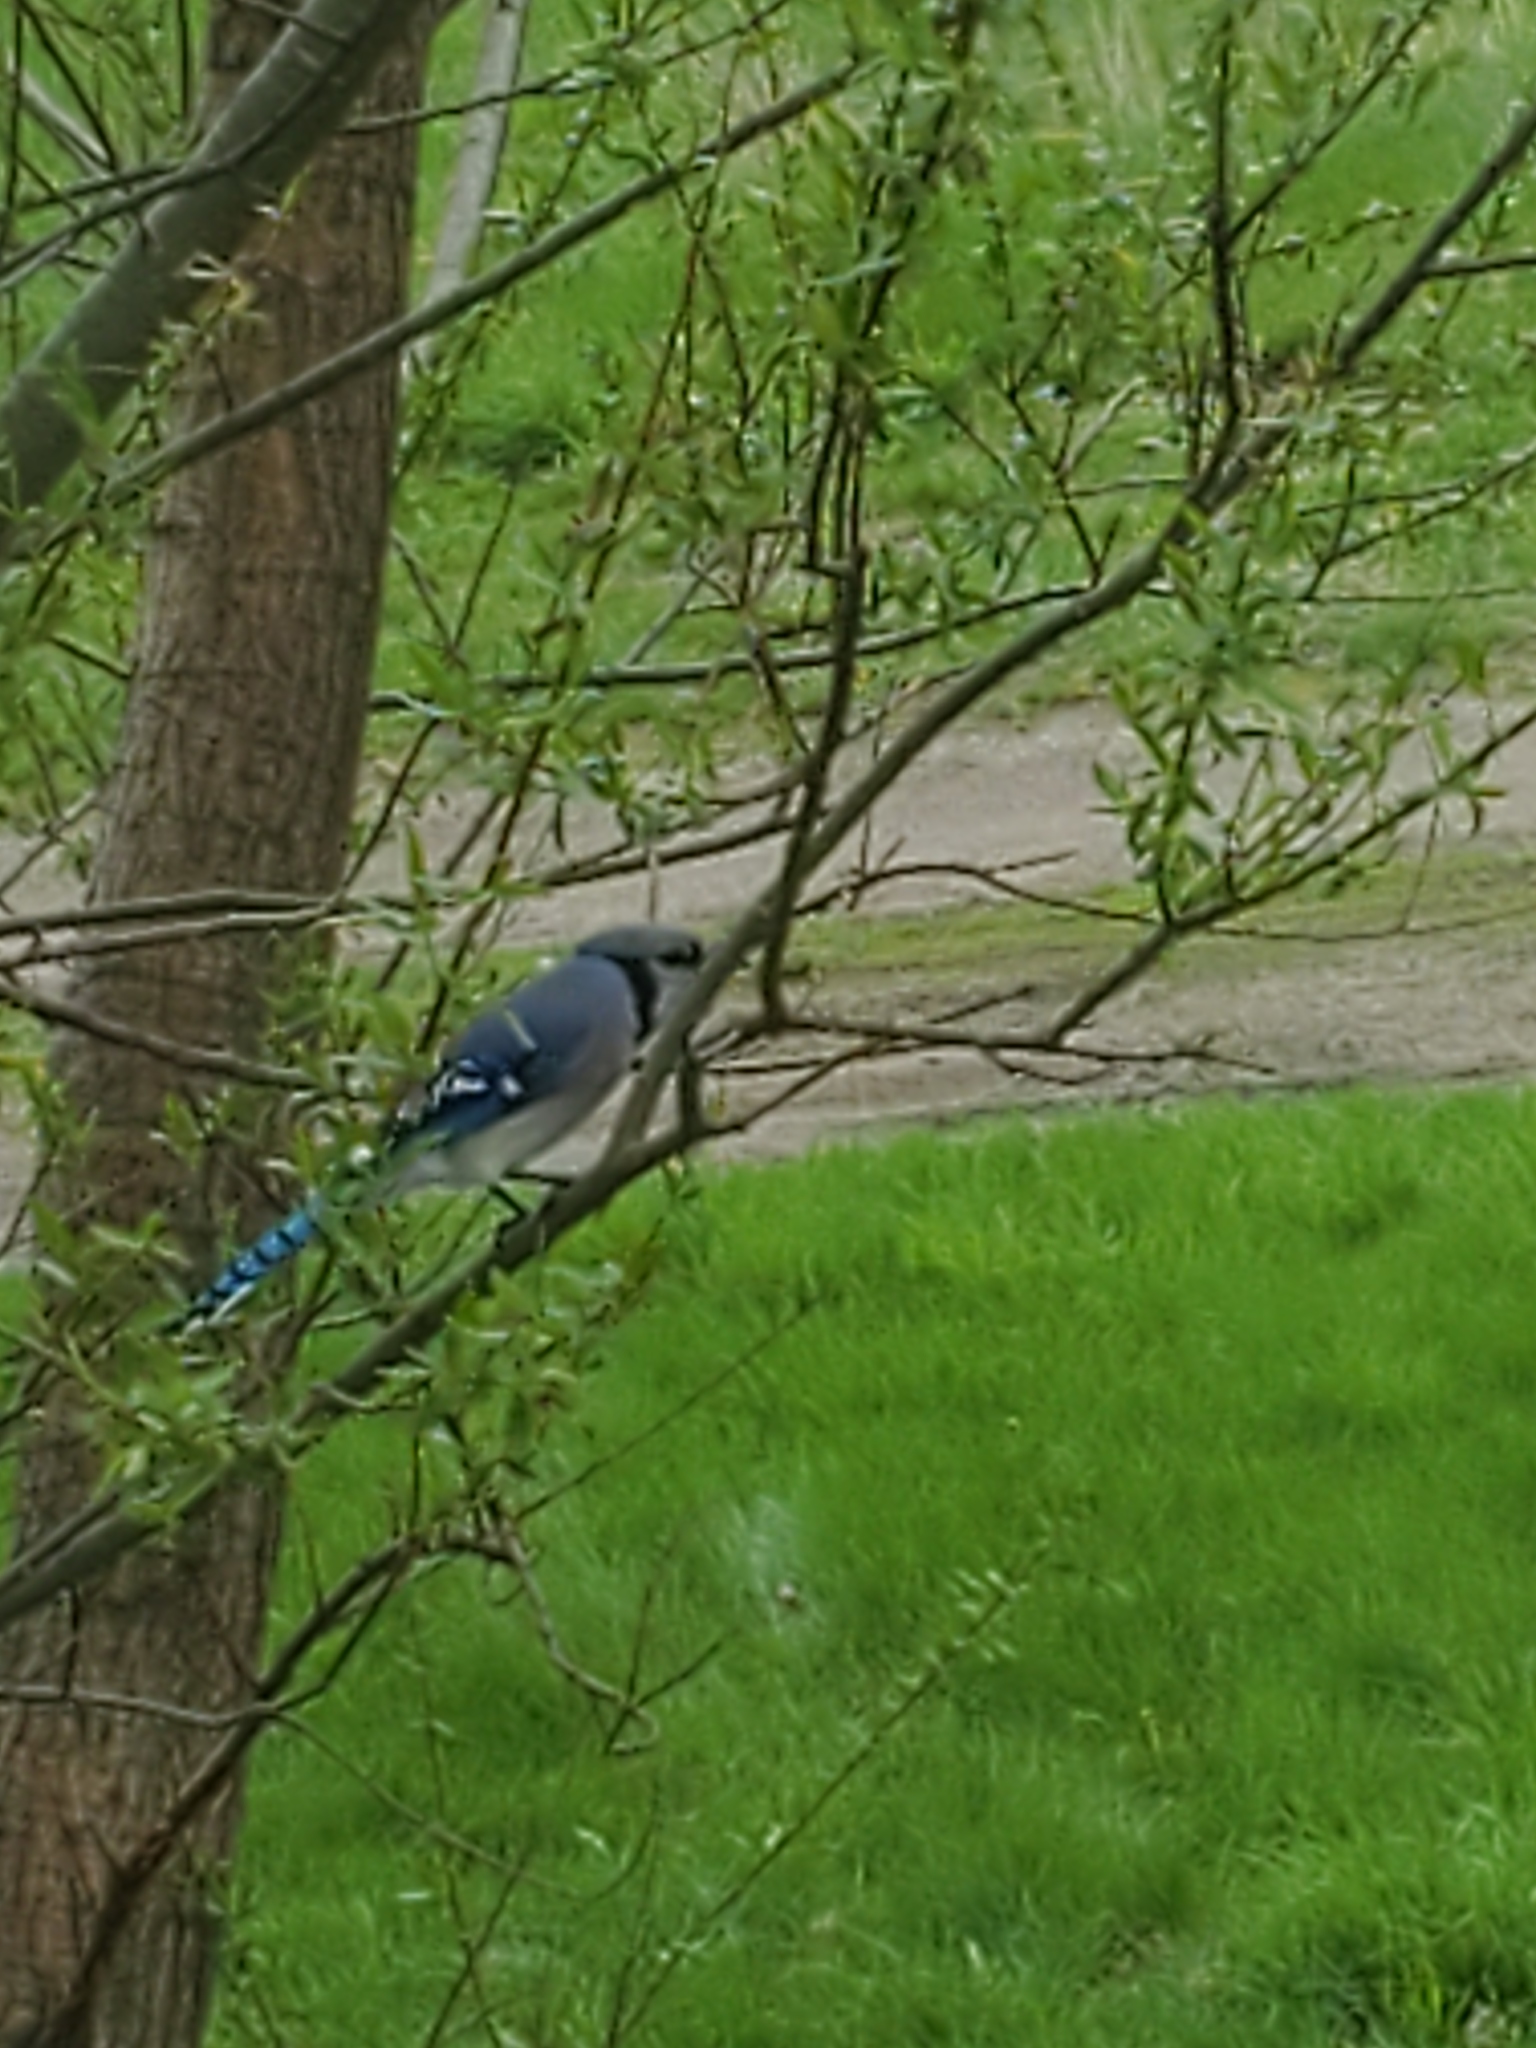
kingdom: Animalia
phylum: Chordata
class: Aves
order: Passeriformes
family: Corvidae
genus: Cyanocitta
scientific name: Cyanocitta cristata
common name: Blue jay
